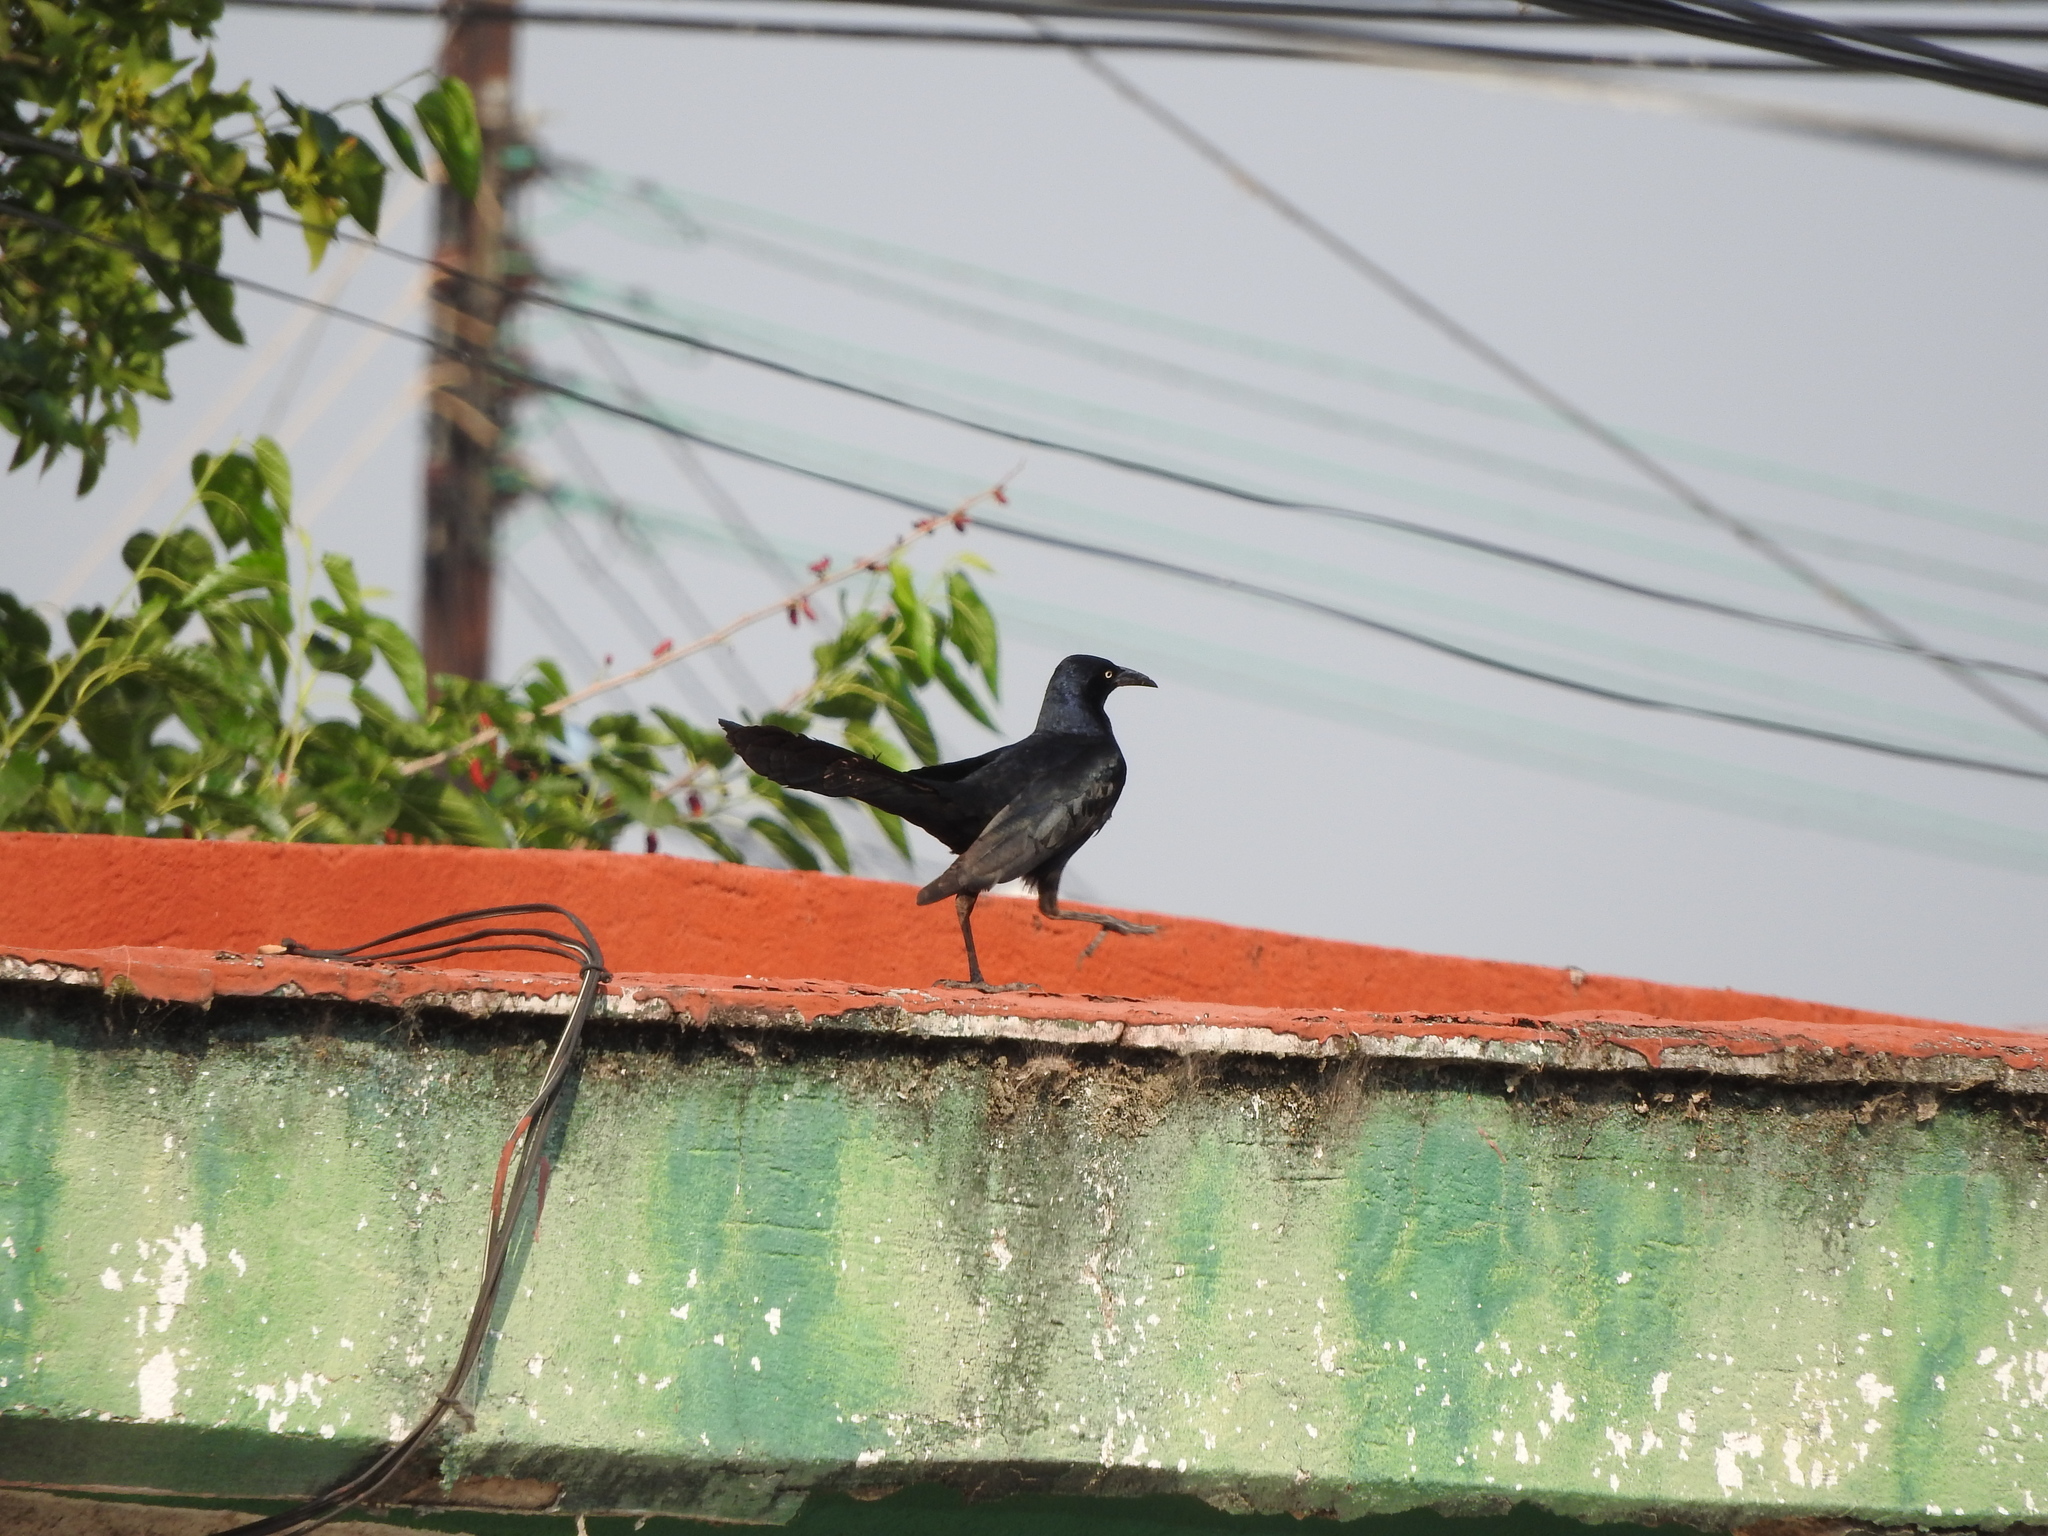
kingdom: Animalia
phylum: Chordata
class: Aves
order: Passeriformes
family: Icteridae
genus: Quiscalus
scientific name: Quiscalus mexicanus
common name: Great-tailed grackle
